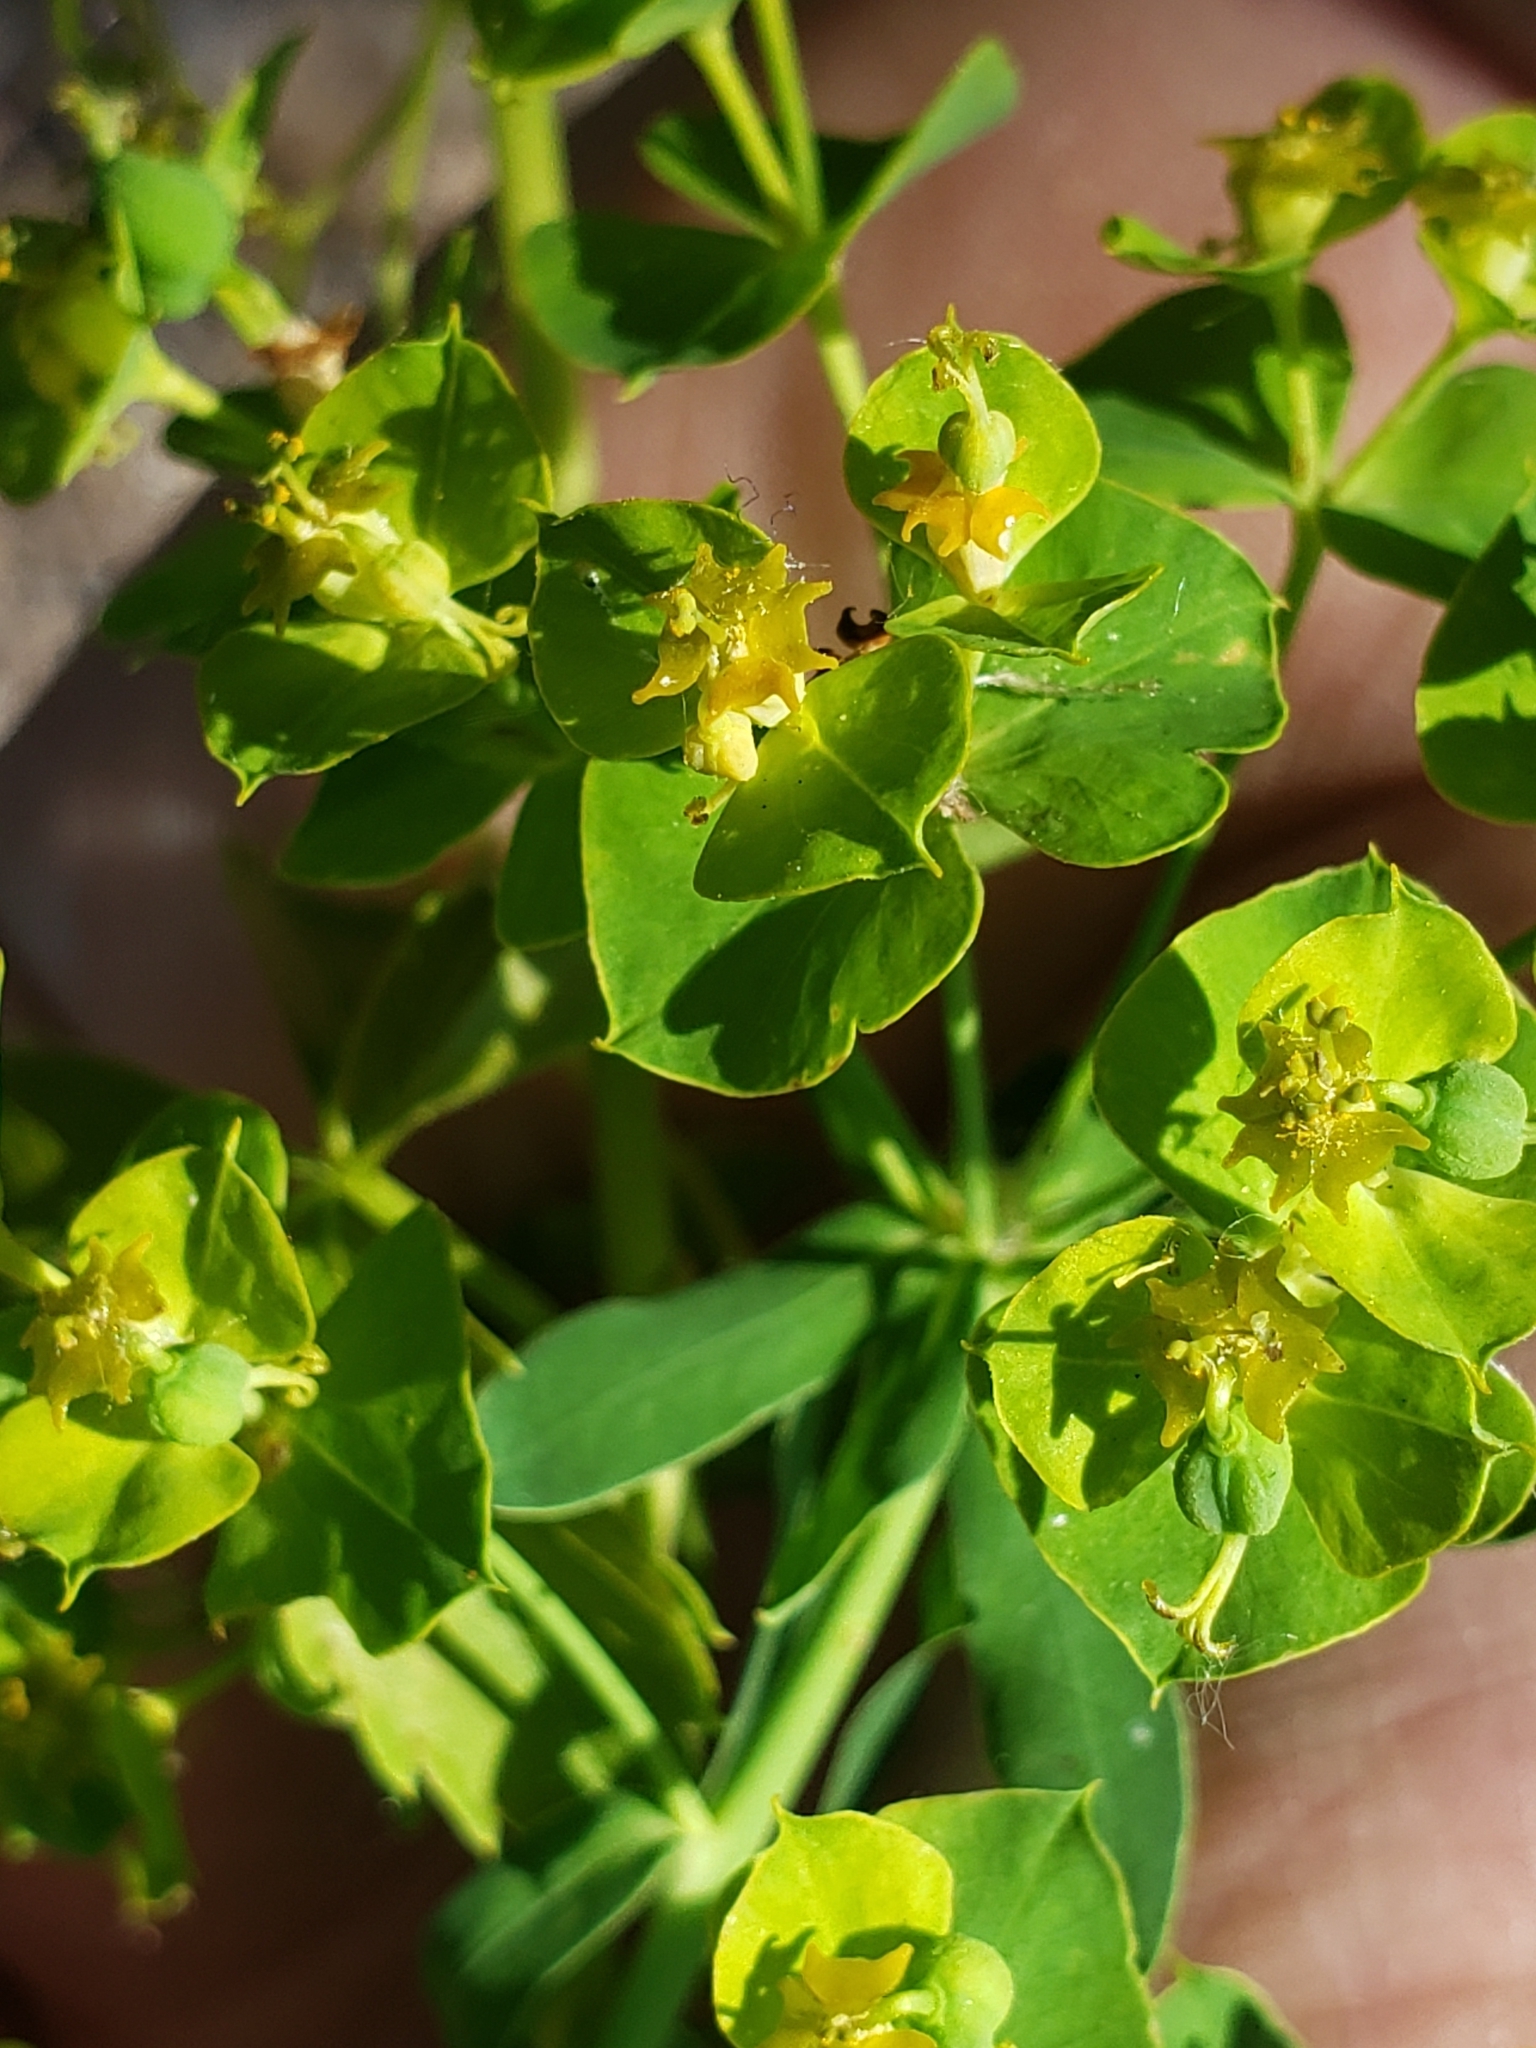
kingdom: Plantae
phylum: Tracheophyta
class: Magnoliopsida
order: Malpighiales
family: Euphorbiaceae
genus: Euphorbia
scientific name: Euphorbia virgata
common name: Leafy spurge
